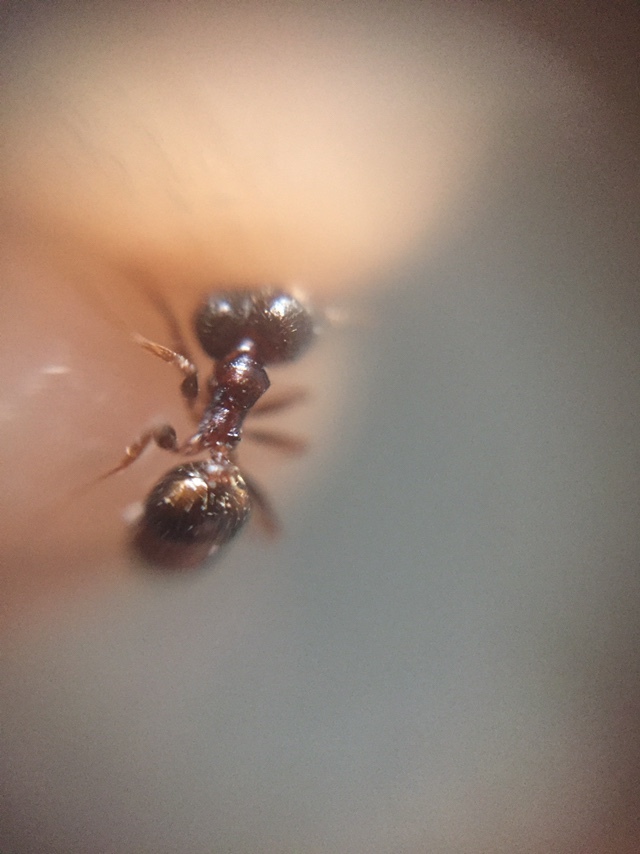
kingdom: Animalia
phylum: Arthropoda
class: Insecta
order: Hymenoptera
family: Formicidae
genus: Pheidole
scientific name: Pheidole indica
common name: Big-headed ant
